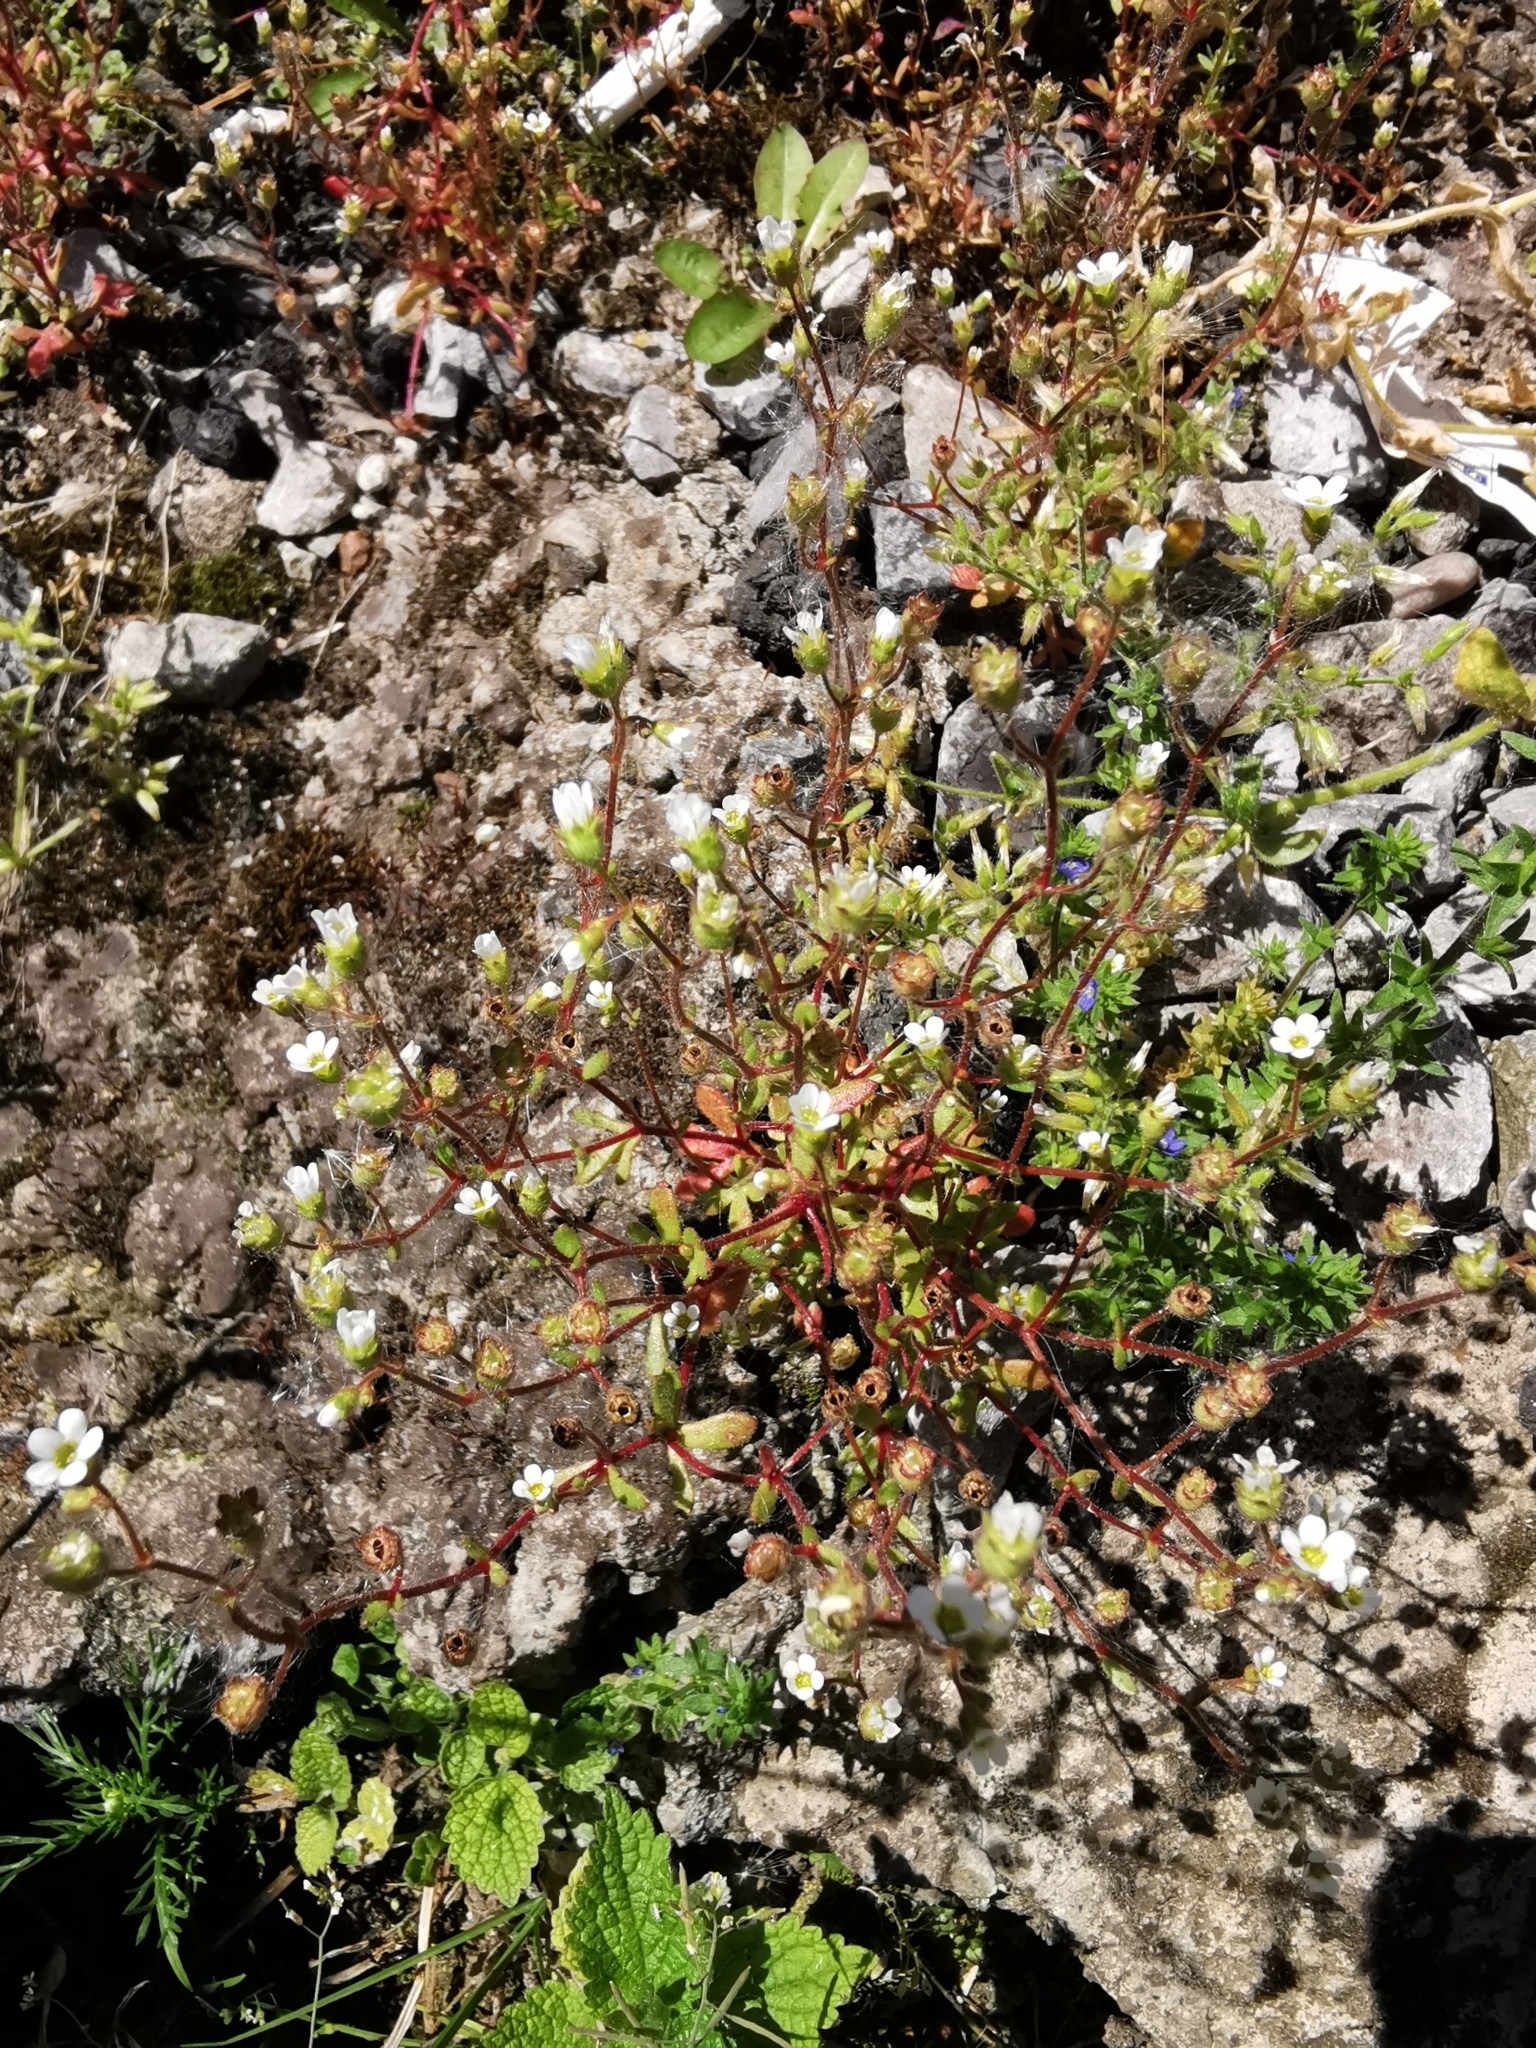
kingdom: Plantae
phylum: Tracheophyta
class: Magnoliopsida
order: Saxifragales
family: Saxifragaceae
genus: Saxifraga
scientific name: Saxifraga tridactylites
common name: Rue-leaved saxifrage
